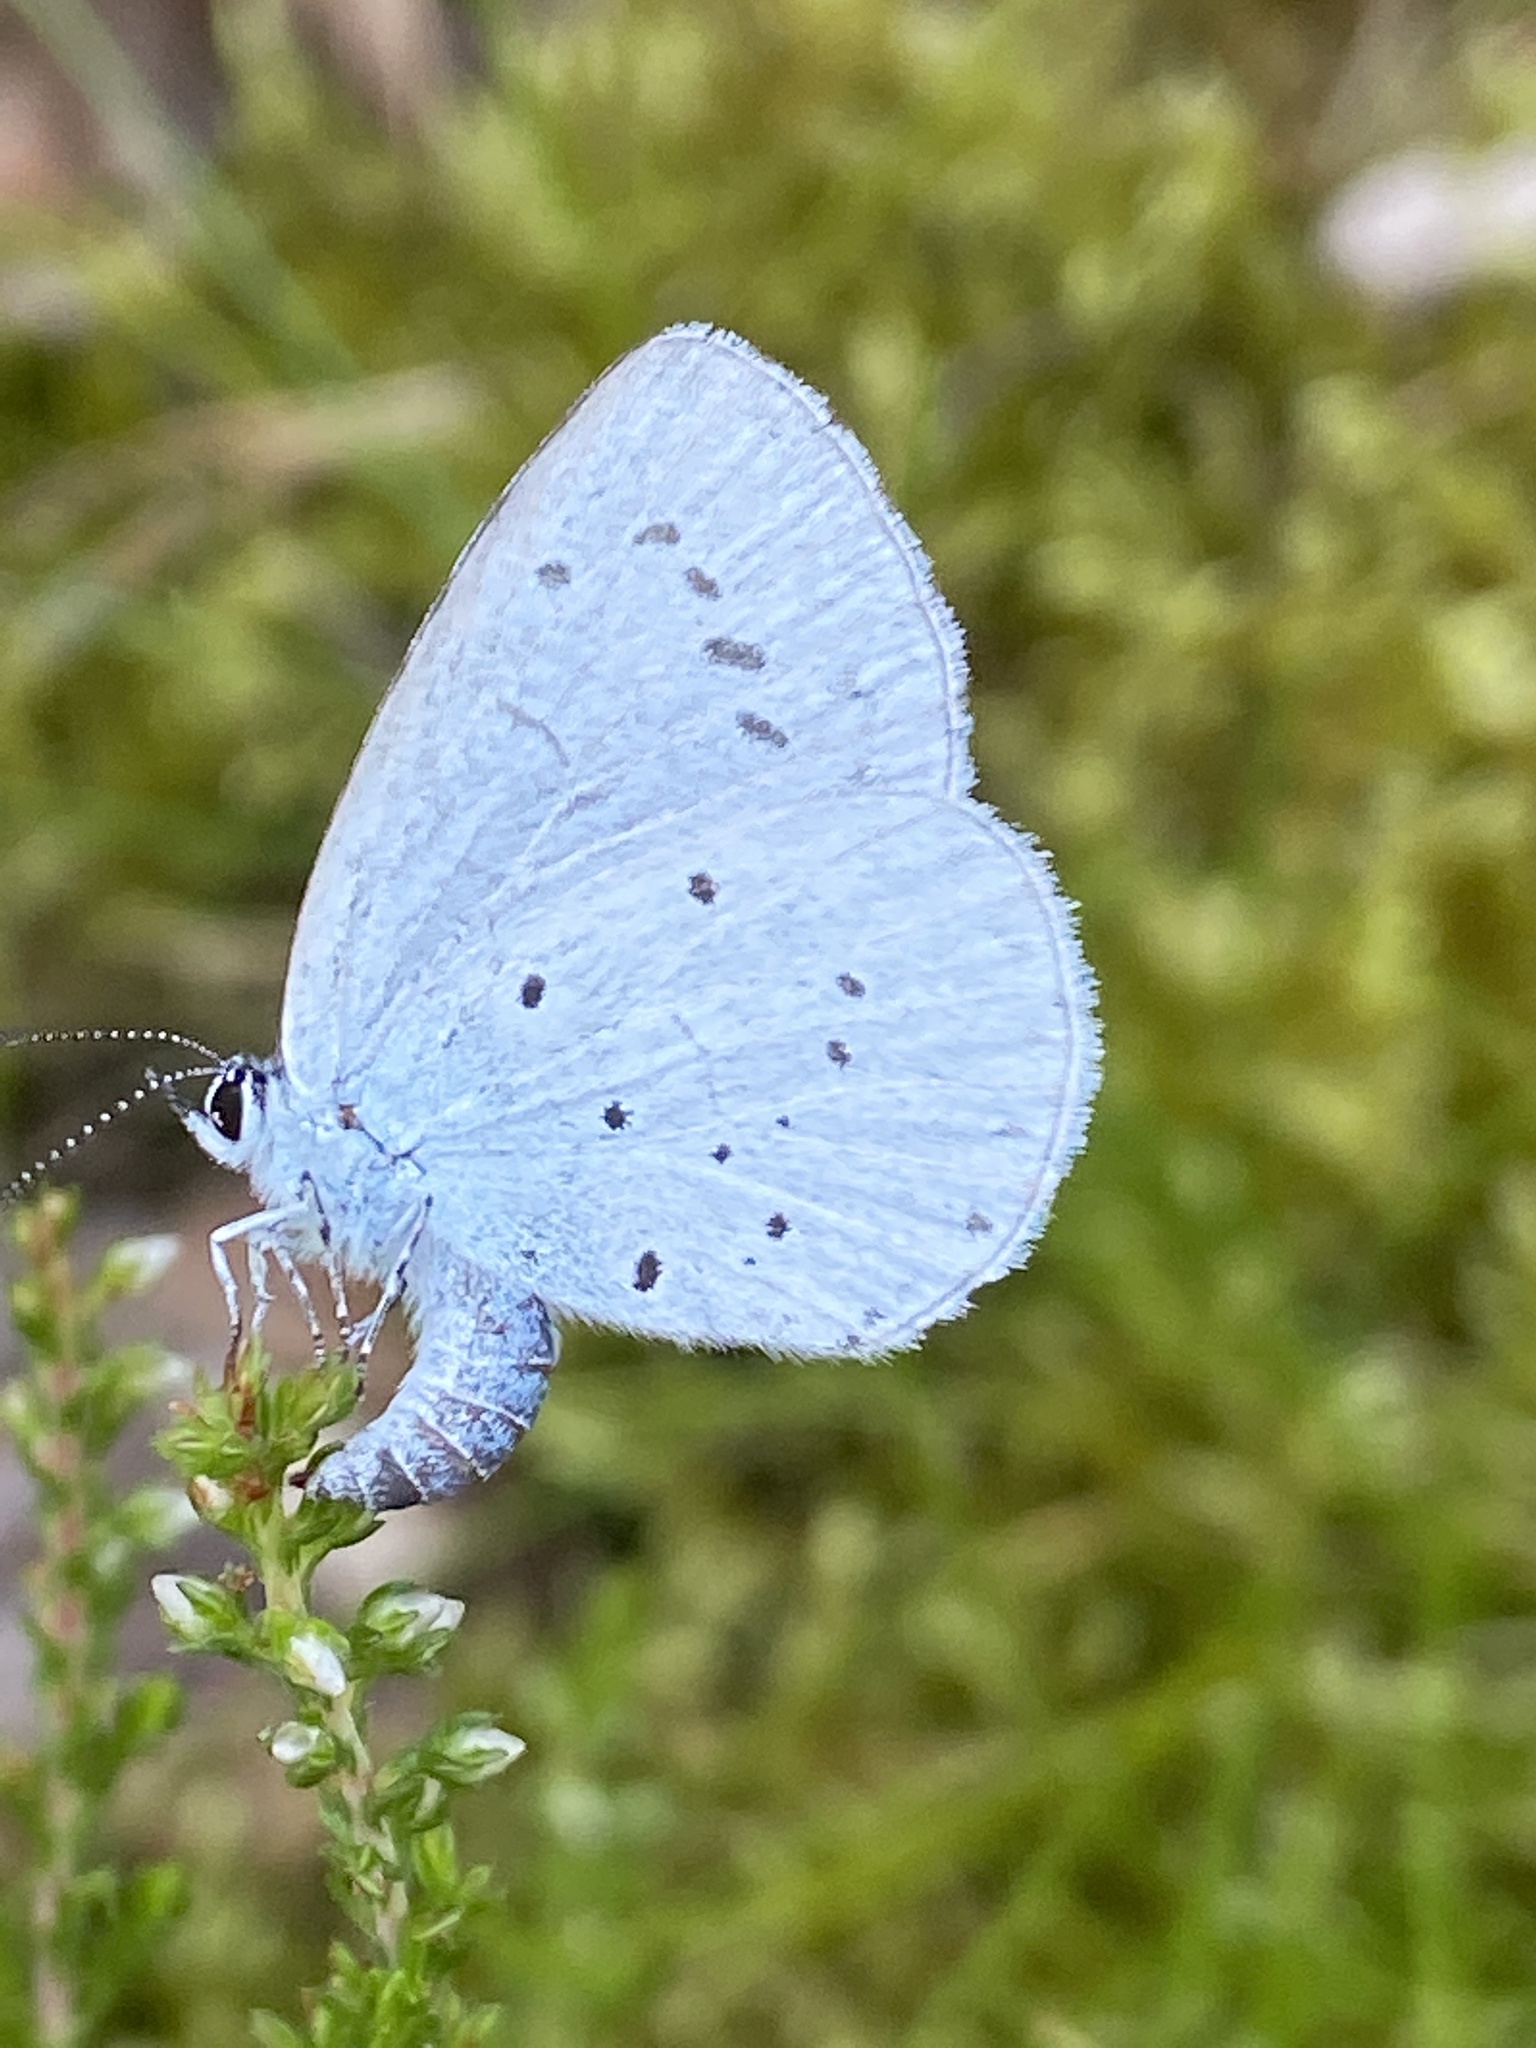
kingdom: Animalia
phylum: Arthropoda
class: Insecta
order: Lepidoptera
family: Lycaenidae
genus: Celastrina
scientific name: Celastrina argiolus
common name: Holly blue
